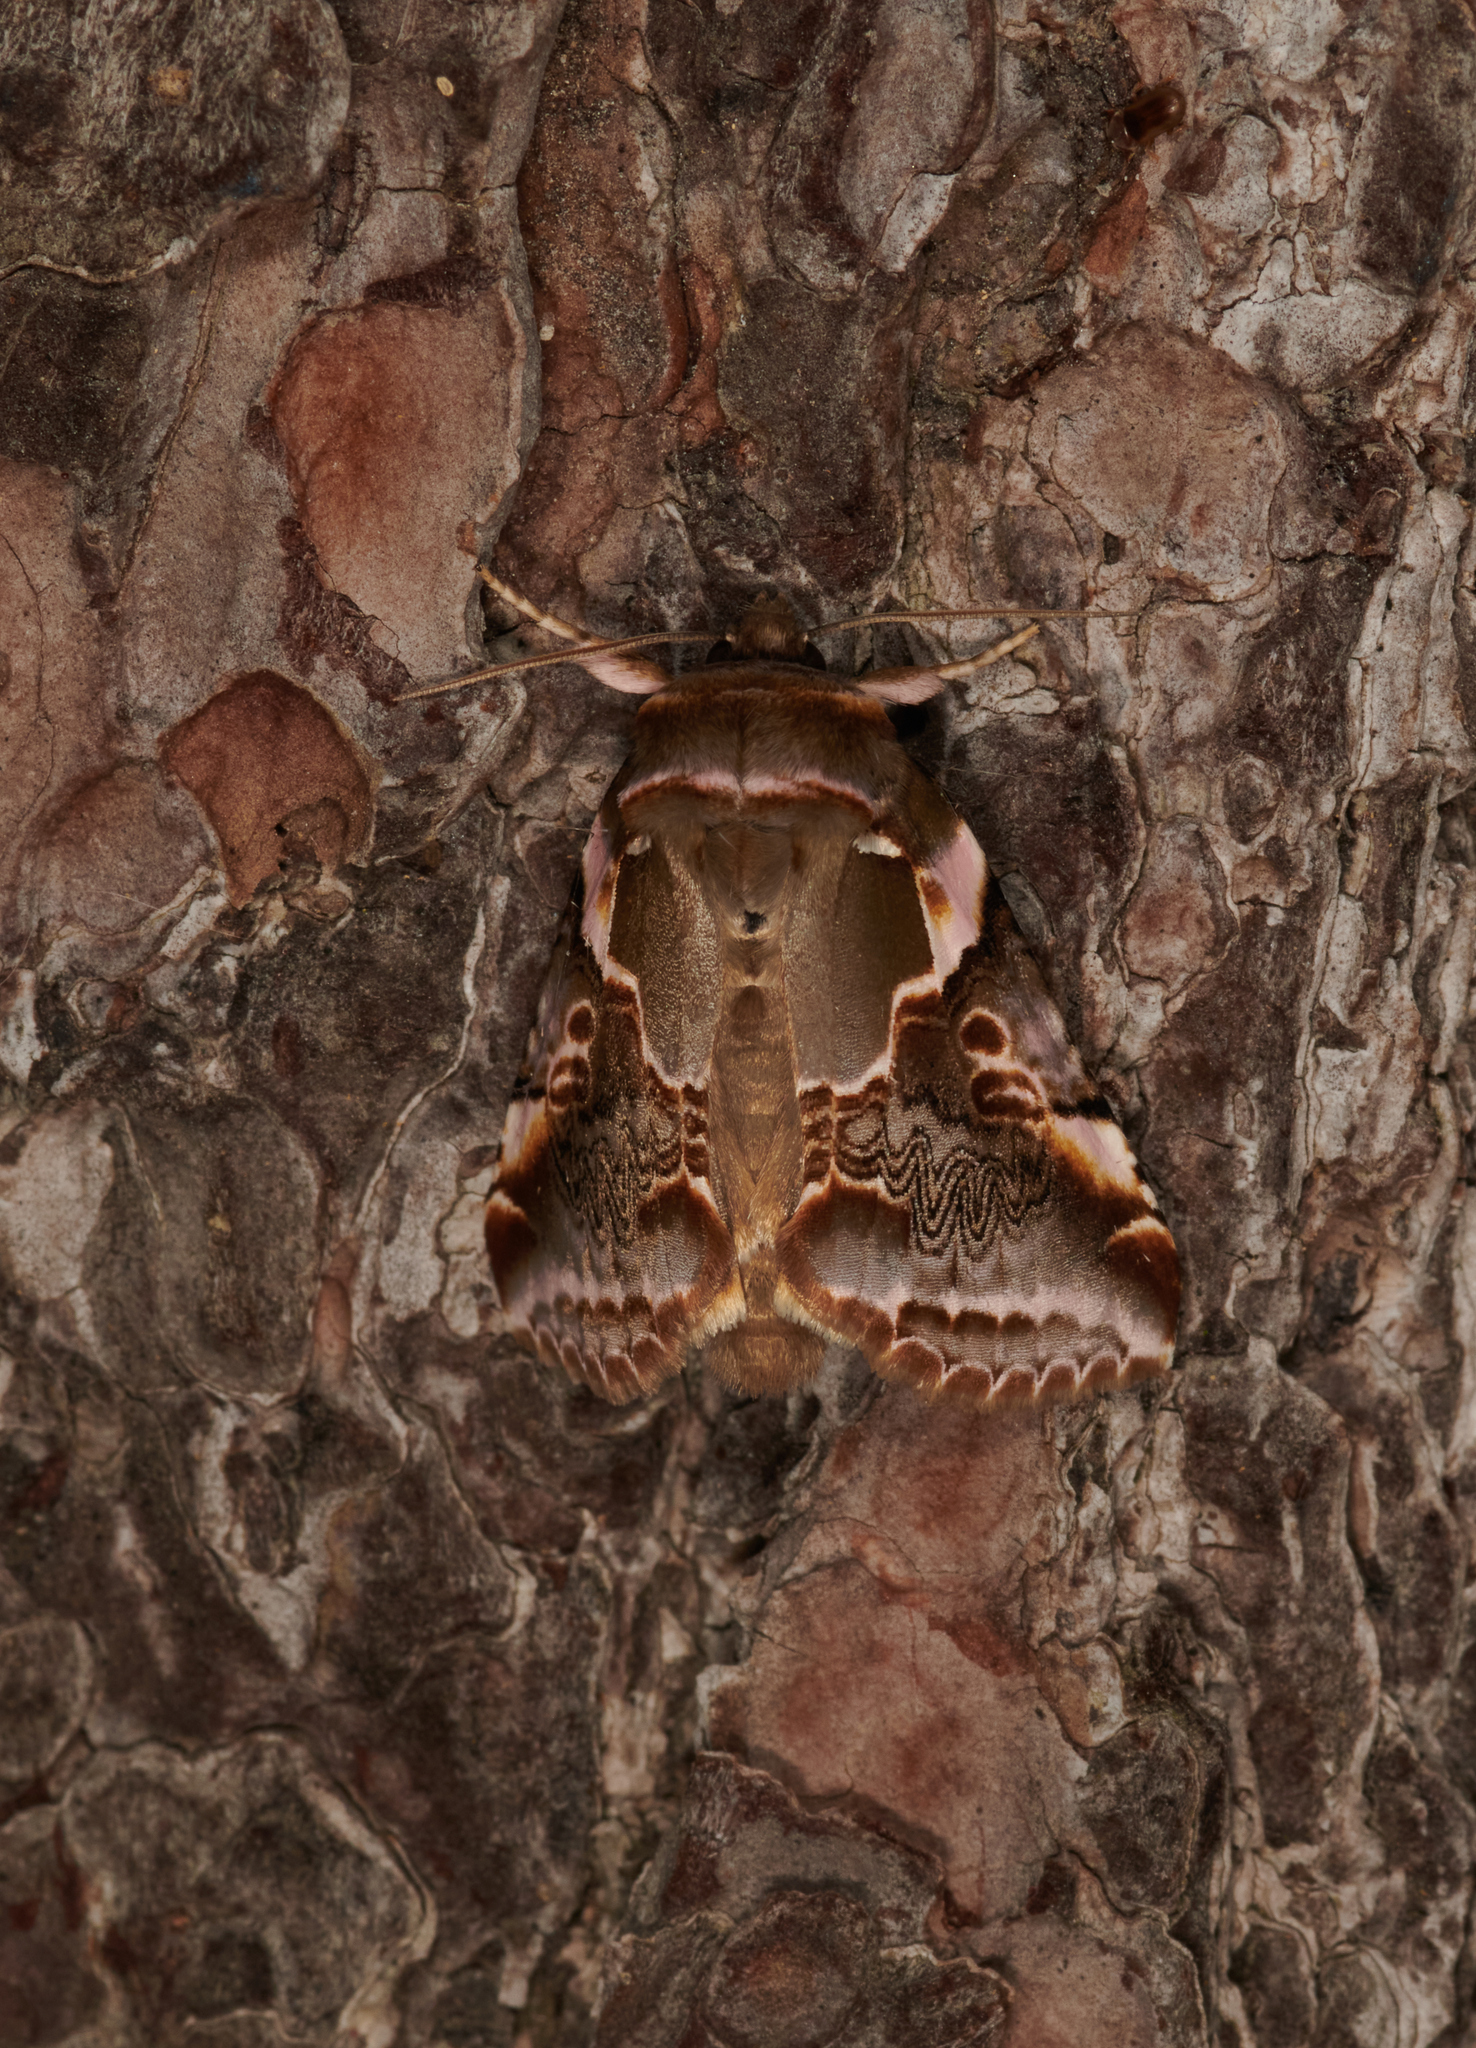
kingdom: Animalia
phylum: Arthropoda
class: Insecta
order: Lepidoptera
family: Drepanidae
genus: Habrosyne
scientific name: Habrosyne gloriosa
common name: Glorious habrosyne moth
